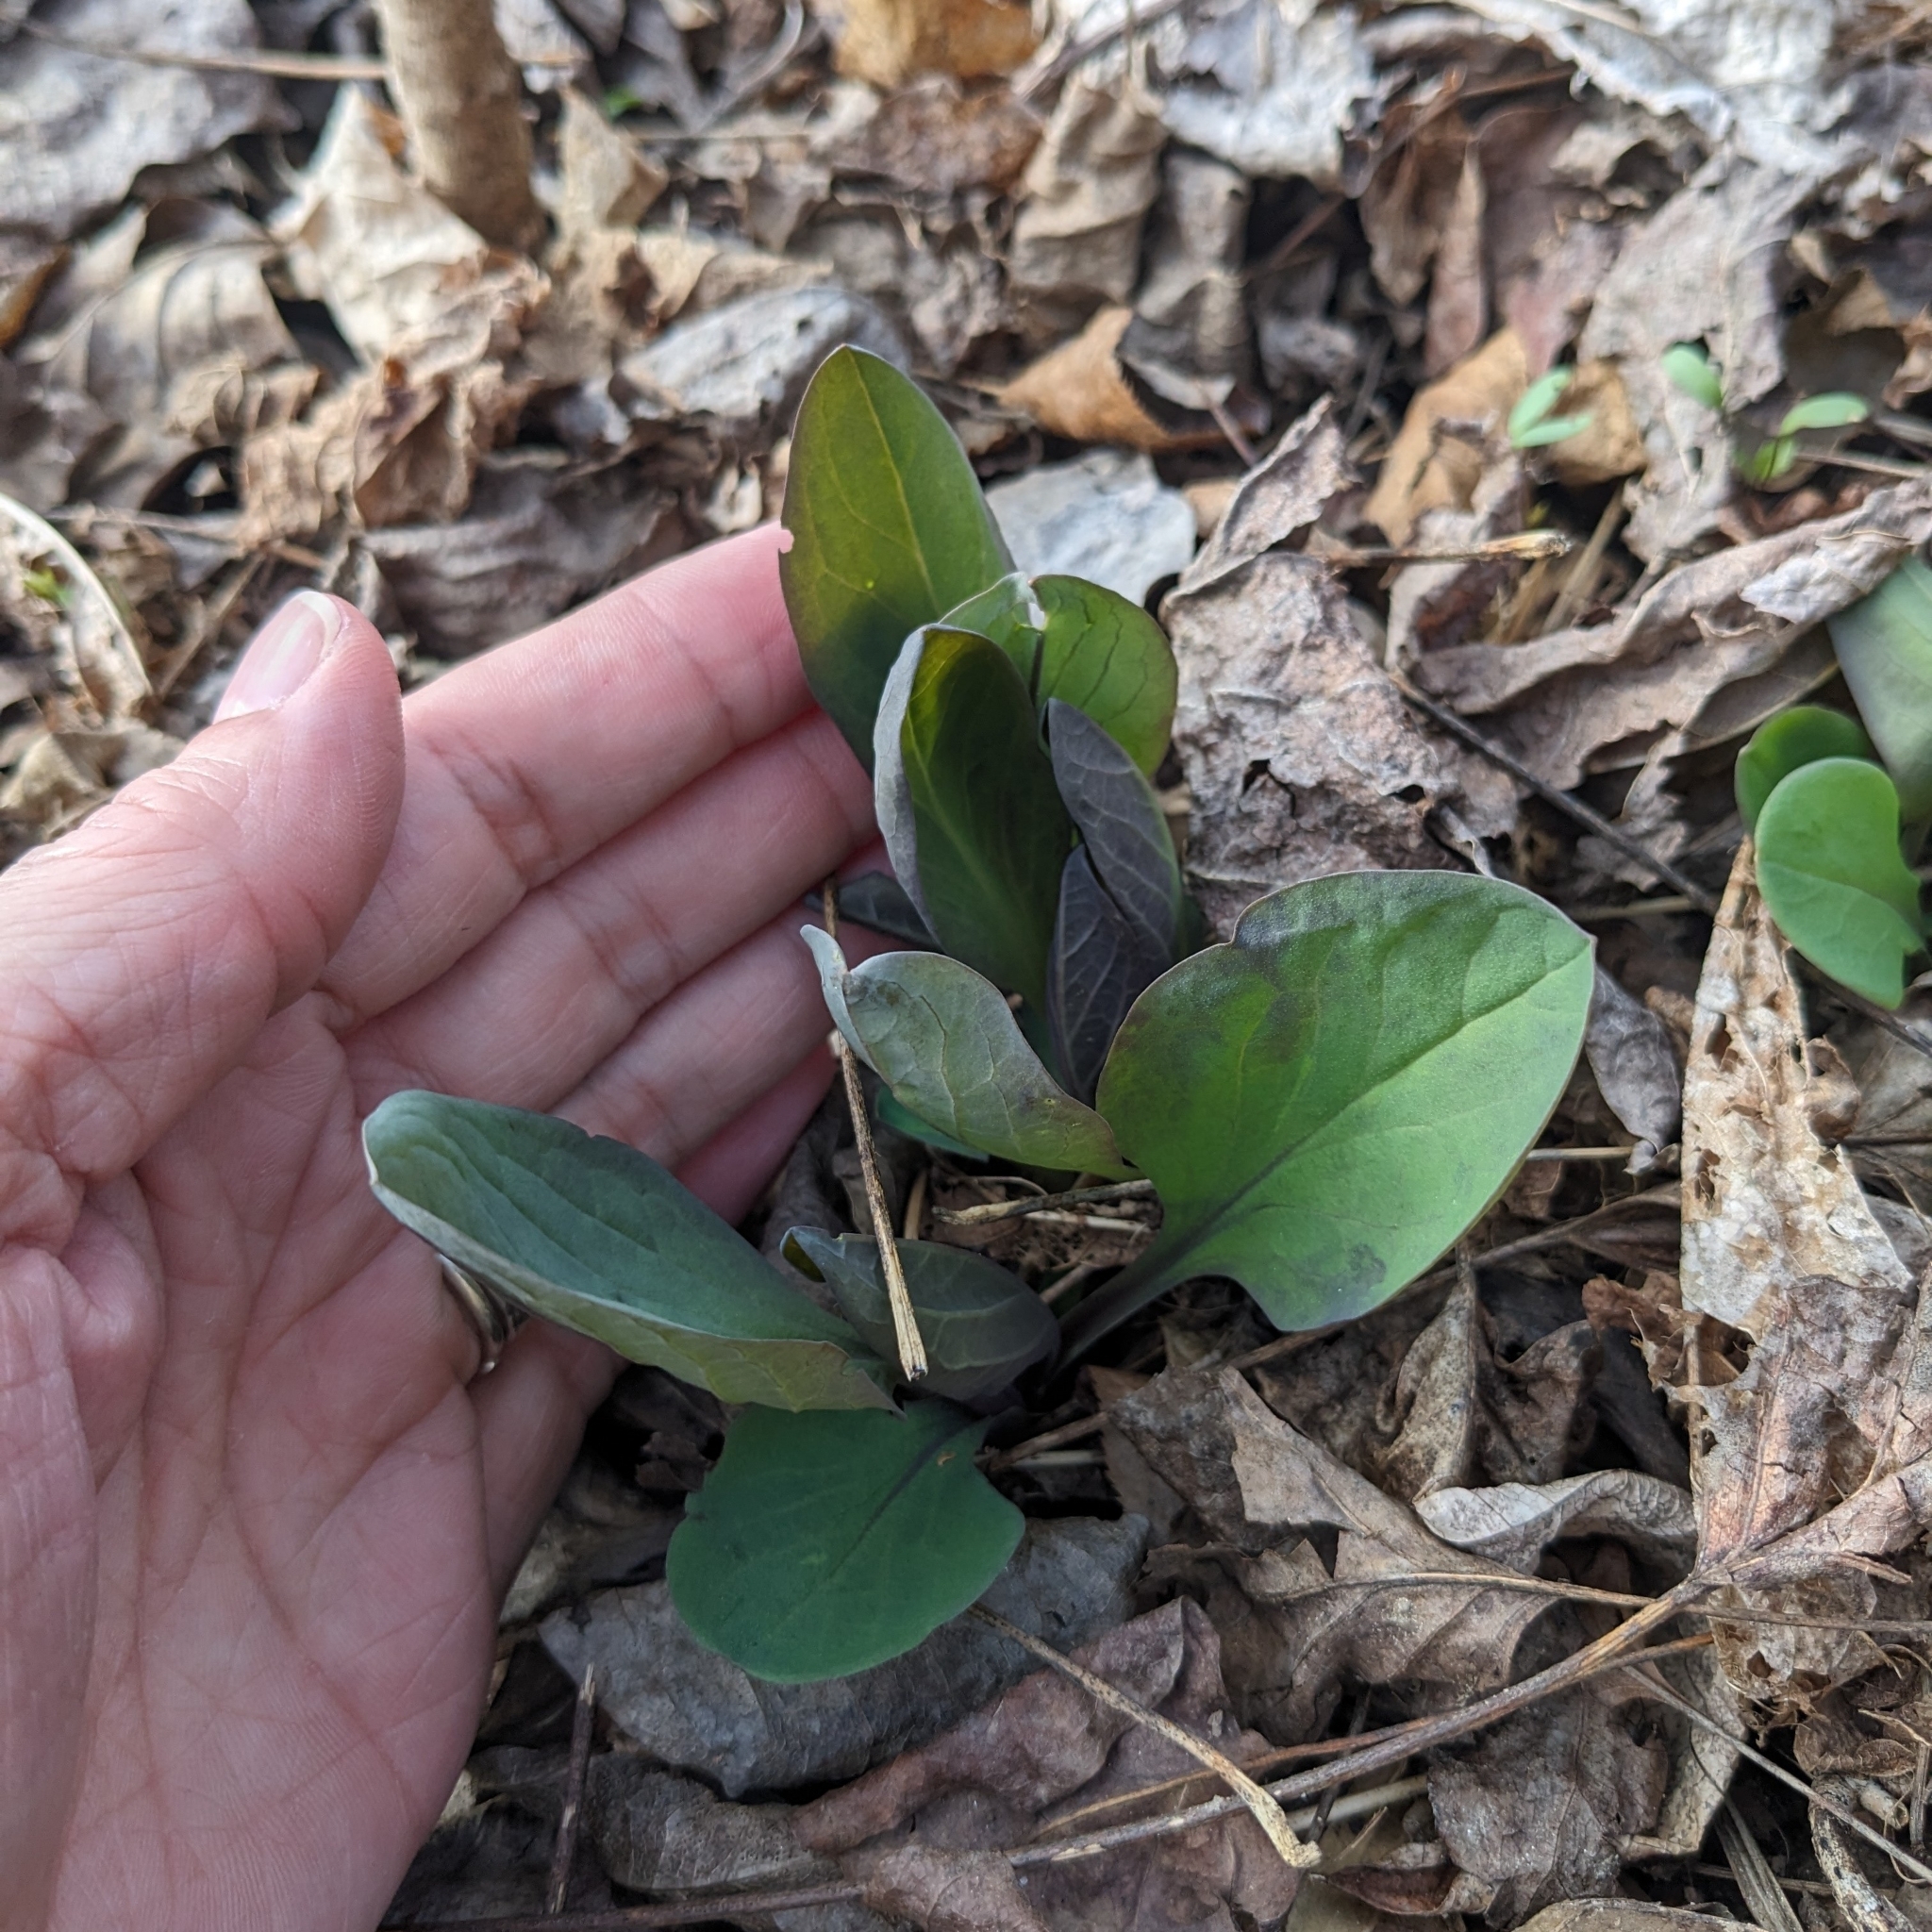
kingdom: Plantae
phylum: Tracheophyta
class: Magnoliopsida
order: Boraginales
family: Boraginaceae
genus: Mertensia
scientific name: Mertensia virginica
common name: Virginia bluebells
